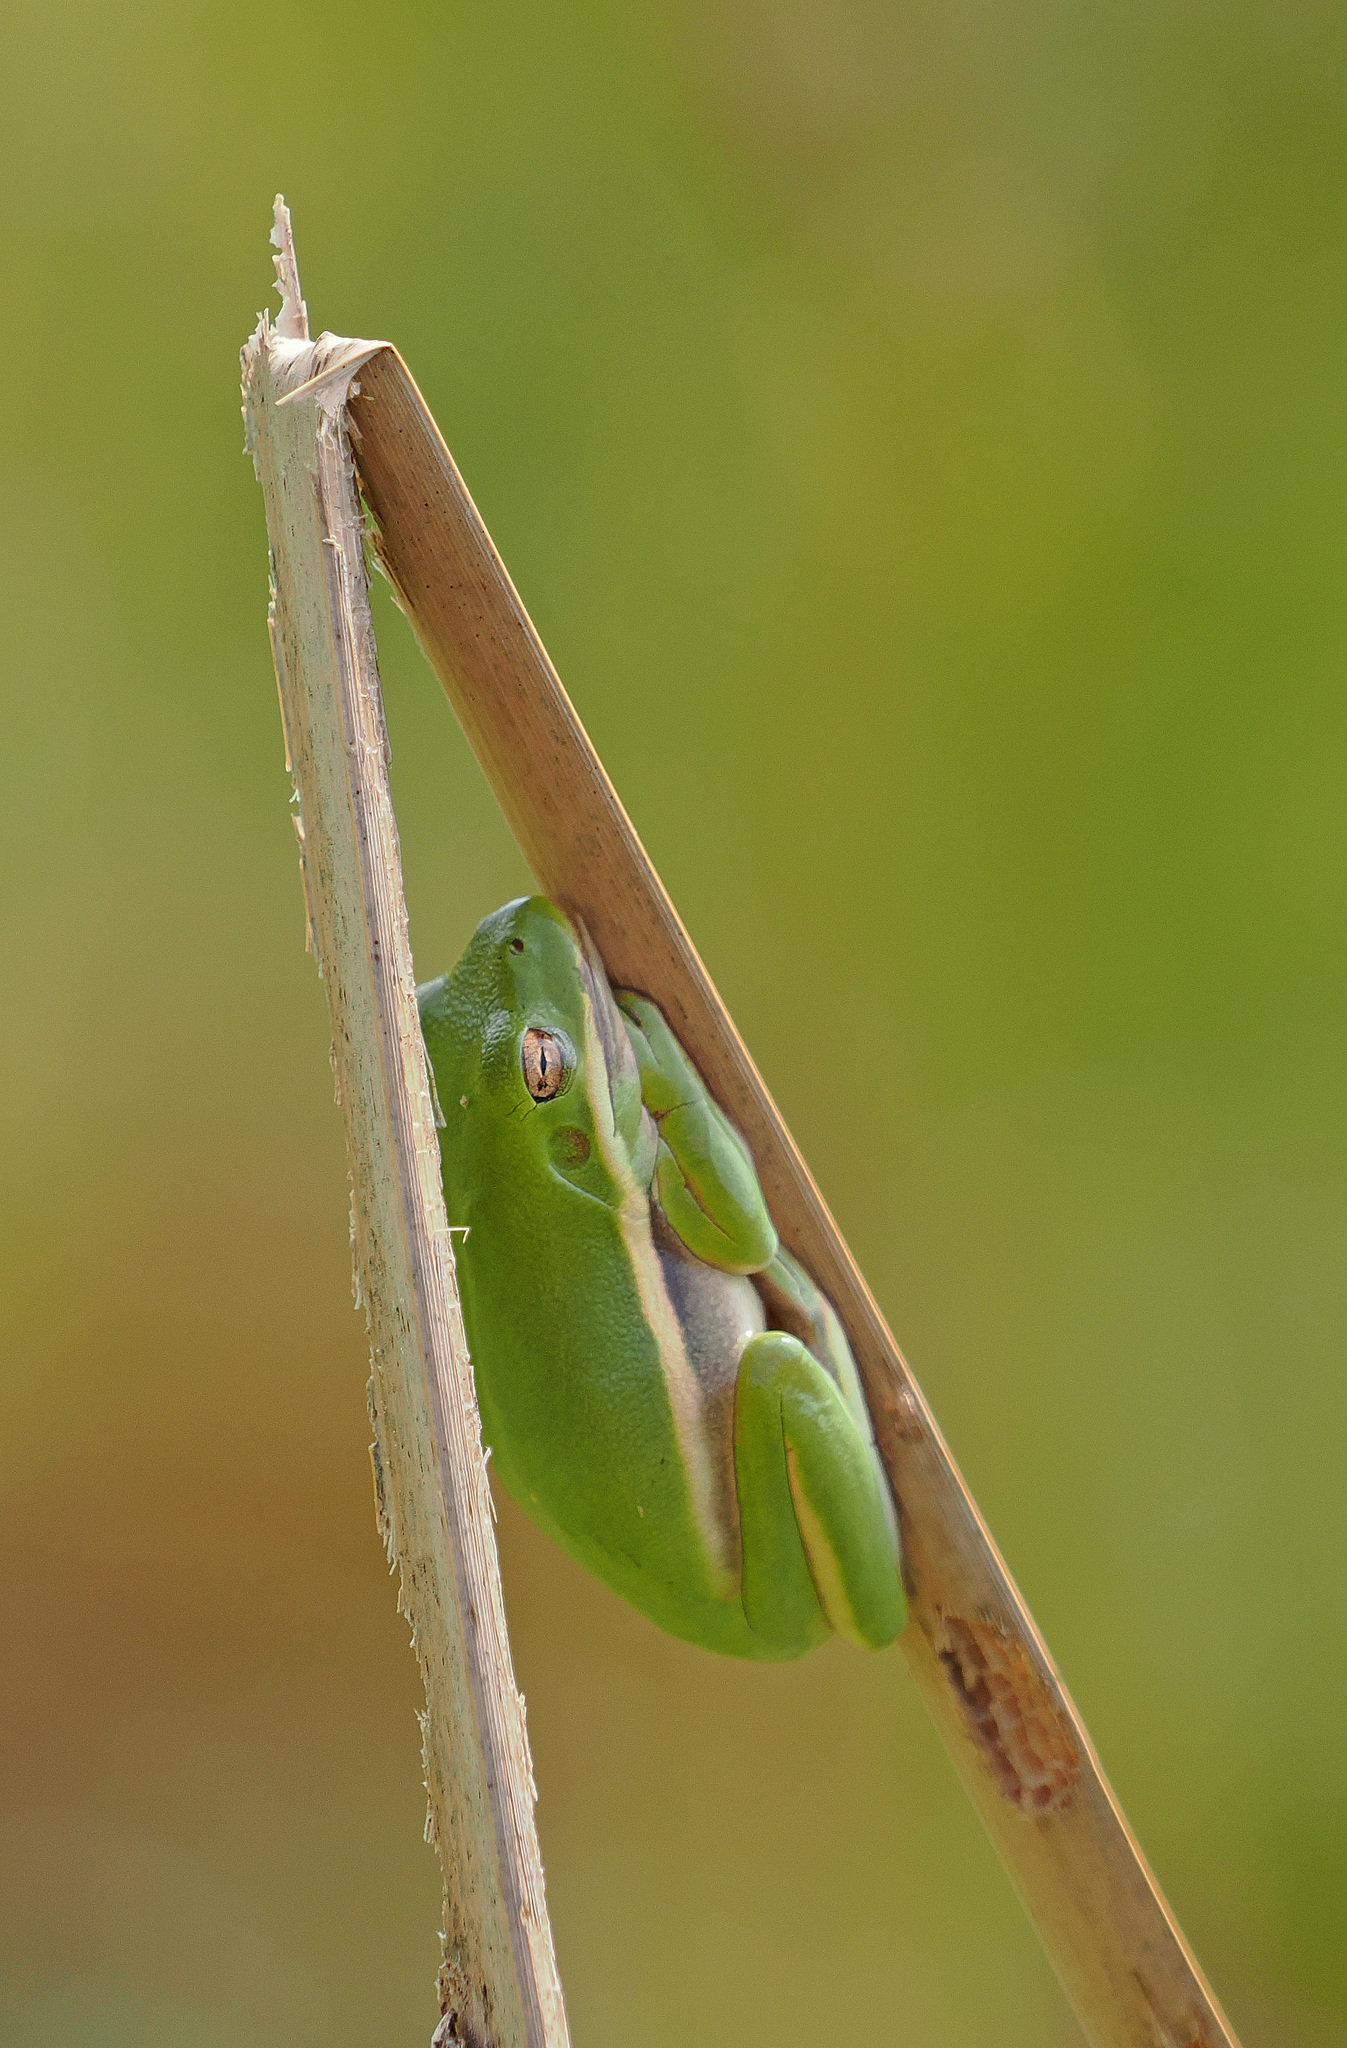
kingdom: Animalia
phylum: Chordata
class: Amphibia
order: Anura
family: Hylidae
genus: Dryophytes
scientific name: Dryophytes cinereus
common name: Green treefrog
